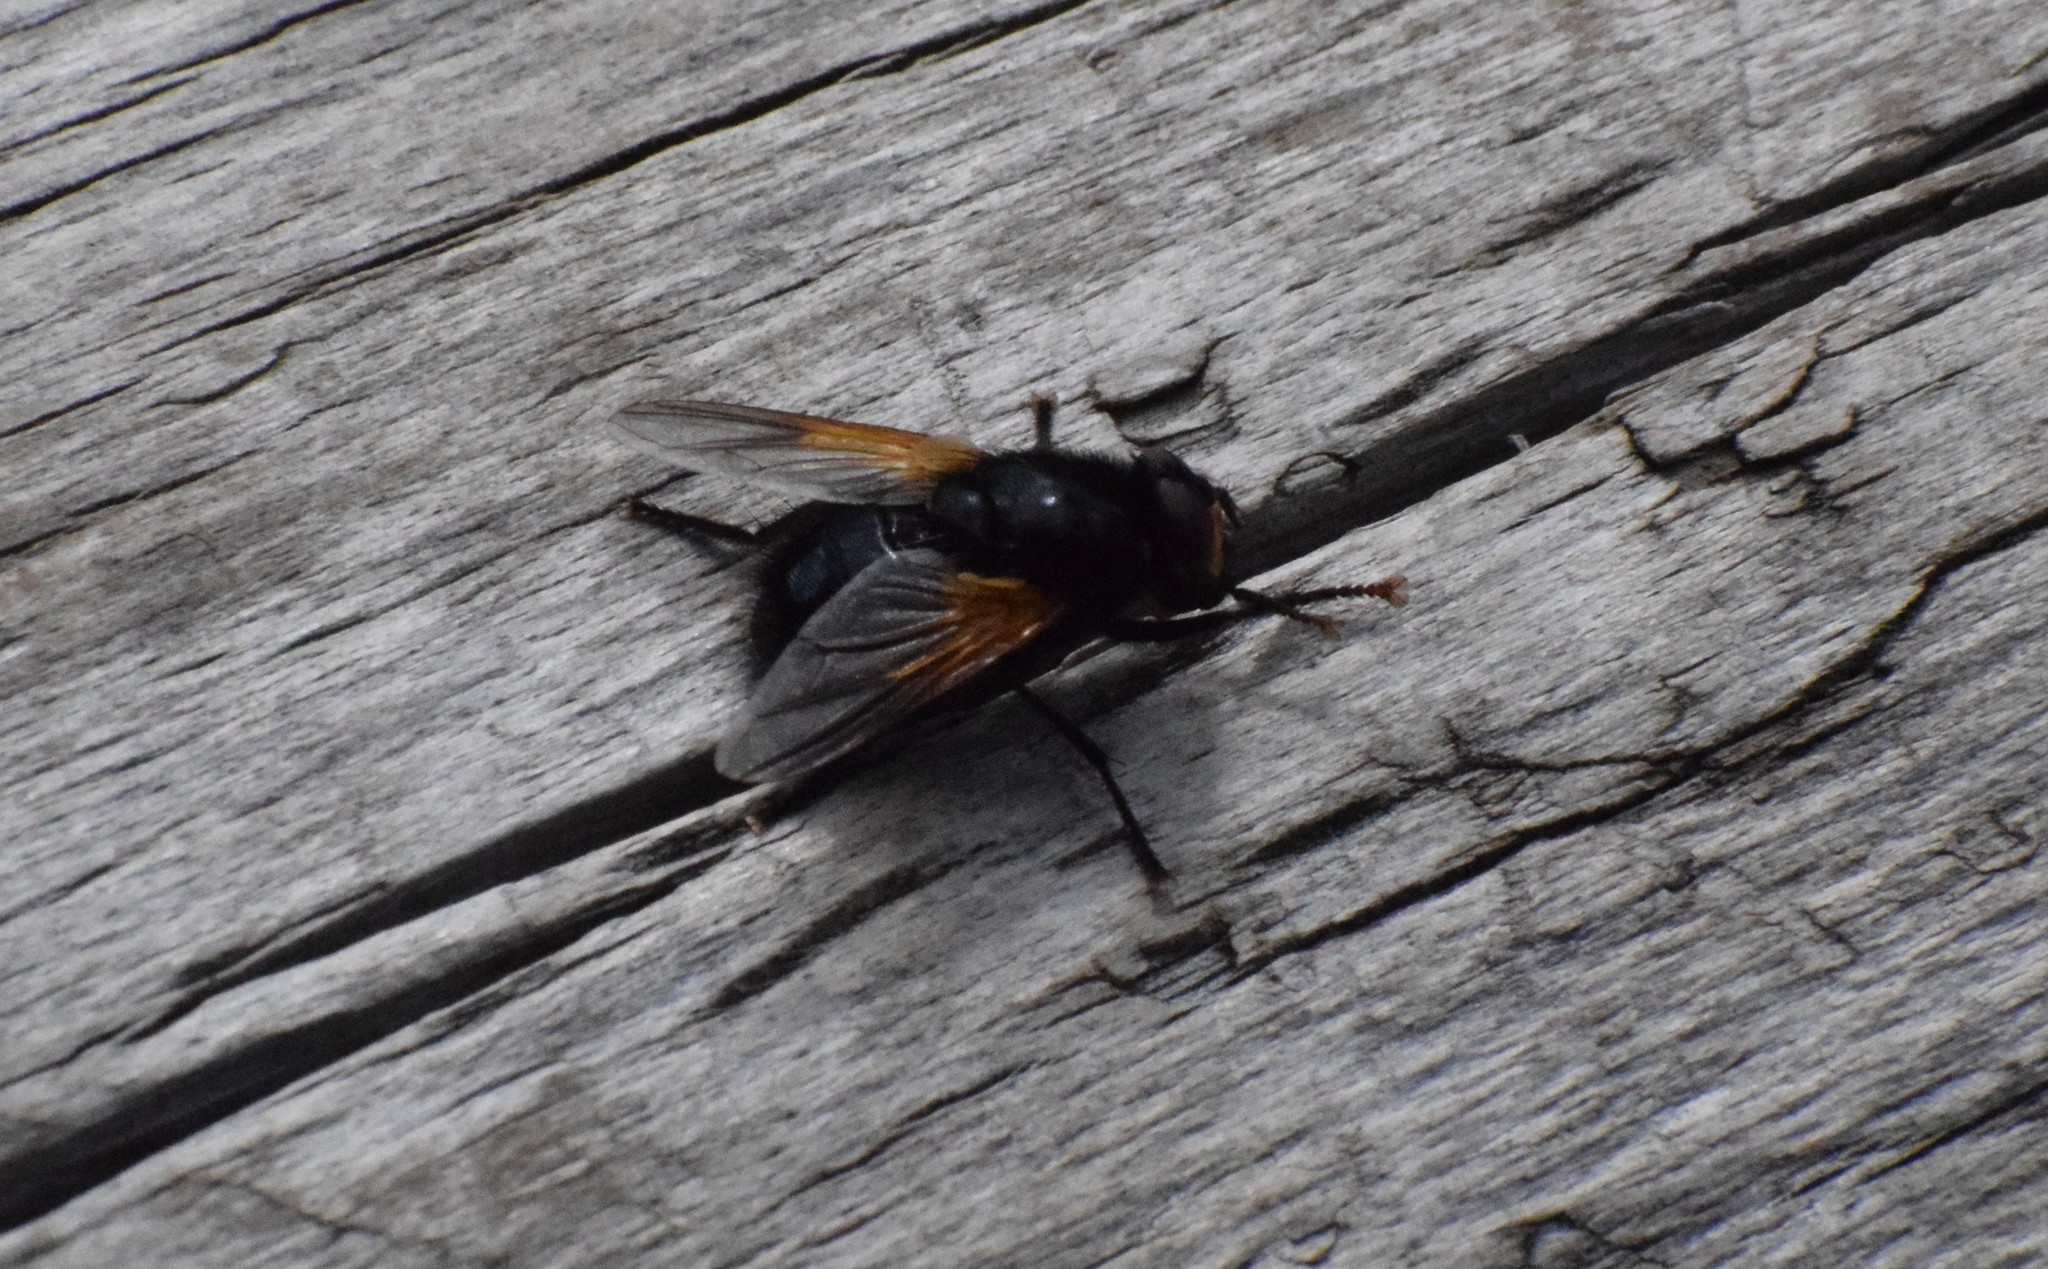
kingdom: Animalia
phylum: Arthropoda
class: Insecta
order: Diptera
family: Muscidae
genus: Mesembrina
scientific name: Mesembrina meridiana
